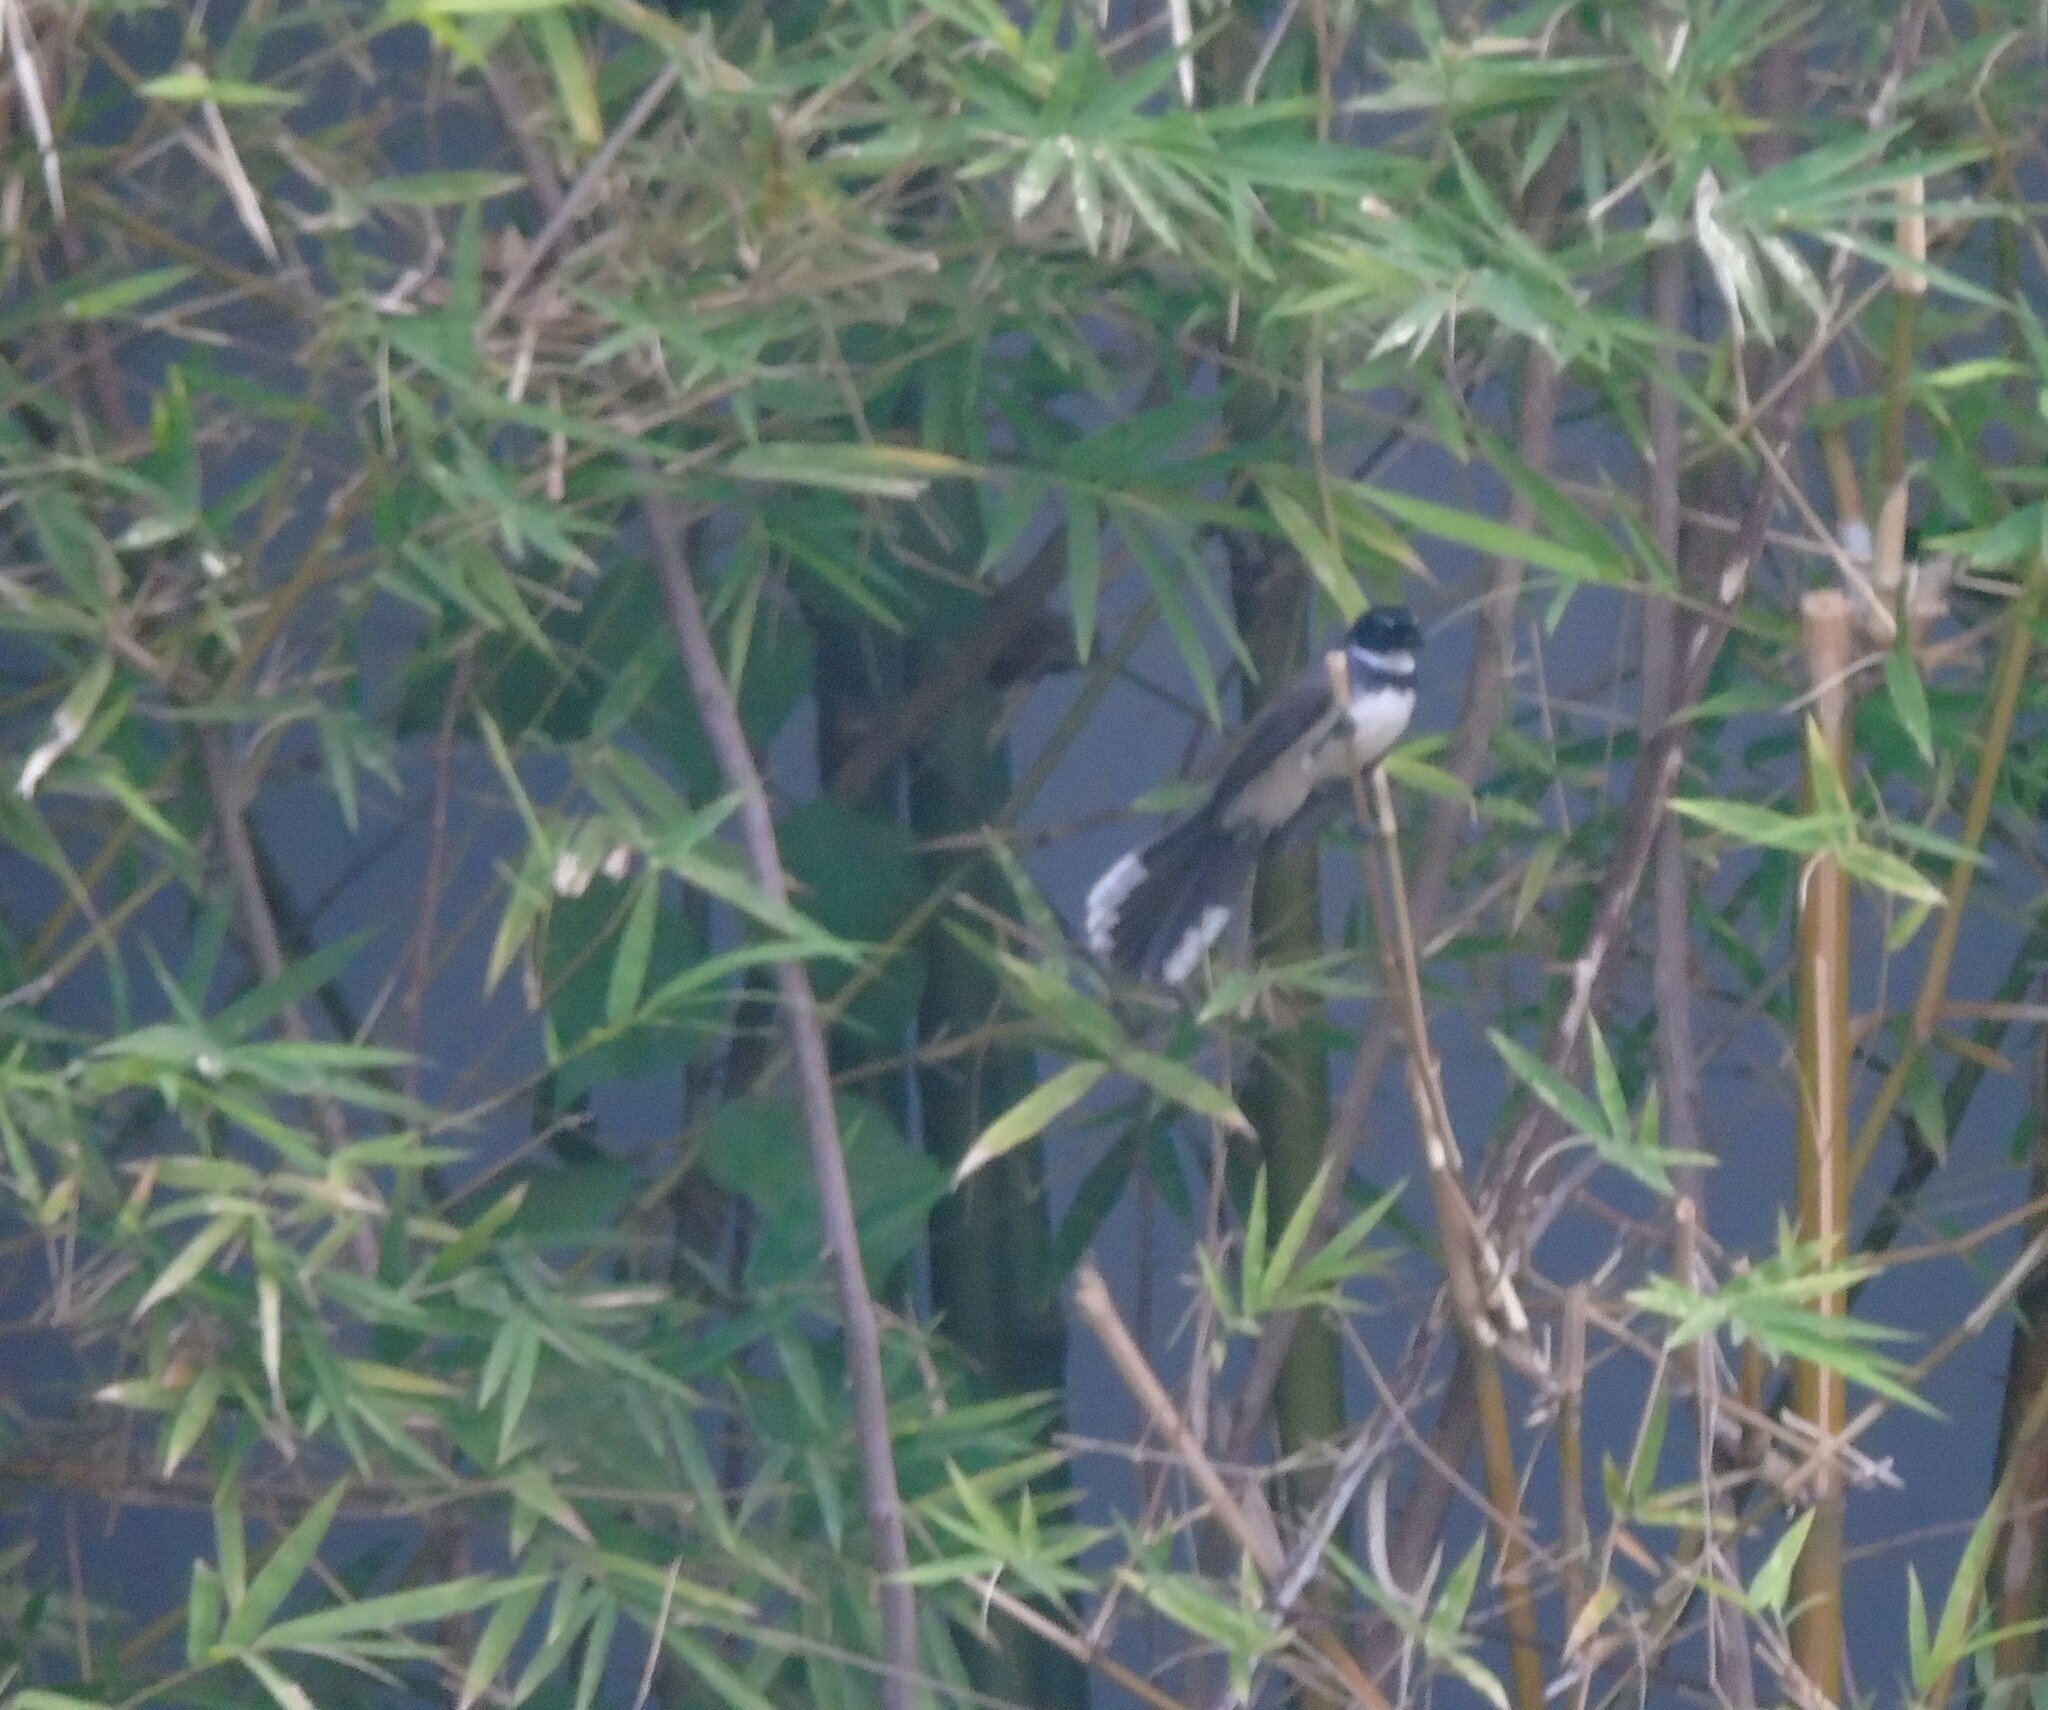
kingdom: Animalia
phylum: Chordata
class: Aves
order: Passeriformes
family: Rhipiduridae
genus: Rhipidura
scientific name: Rhipidura javanica
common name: Pied fantail
